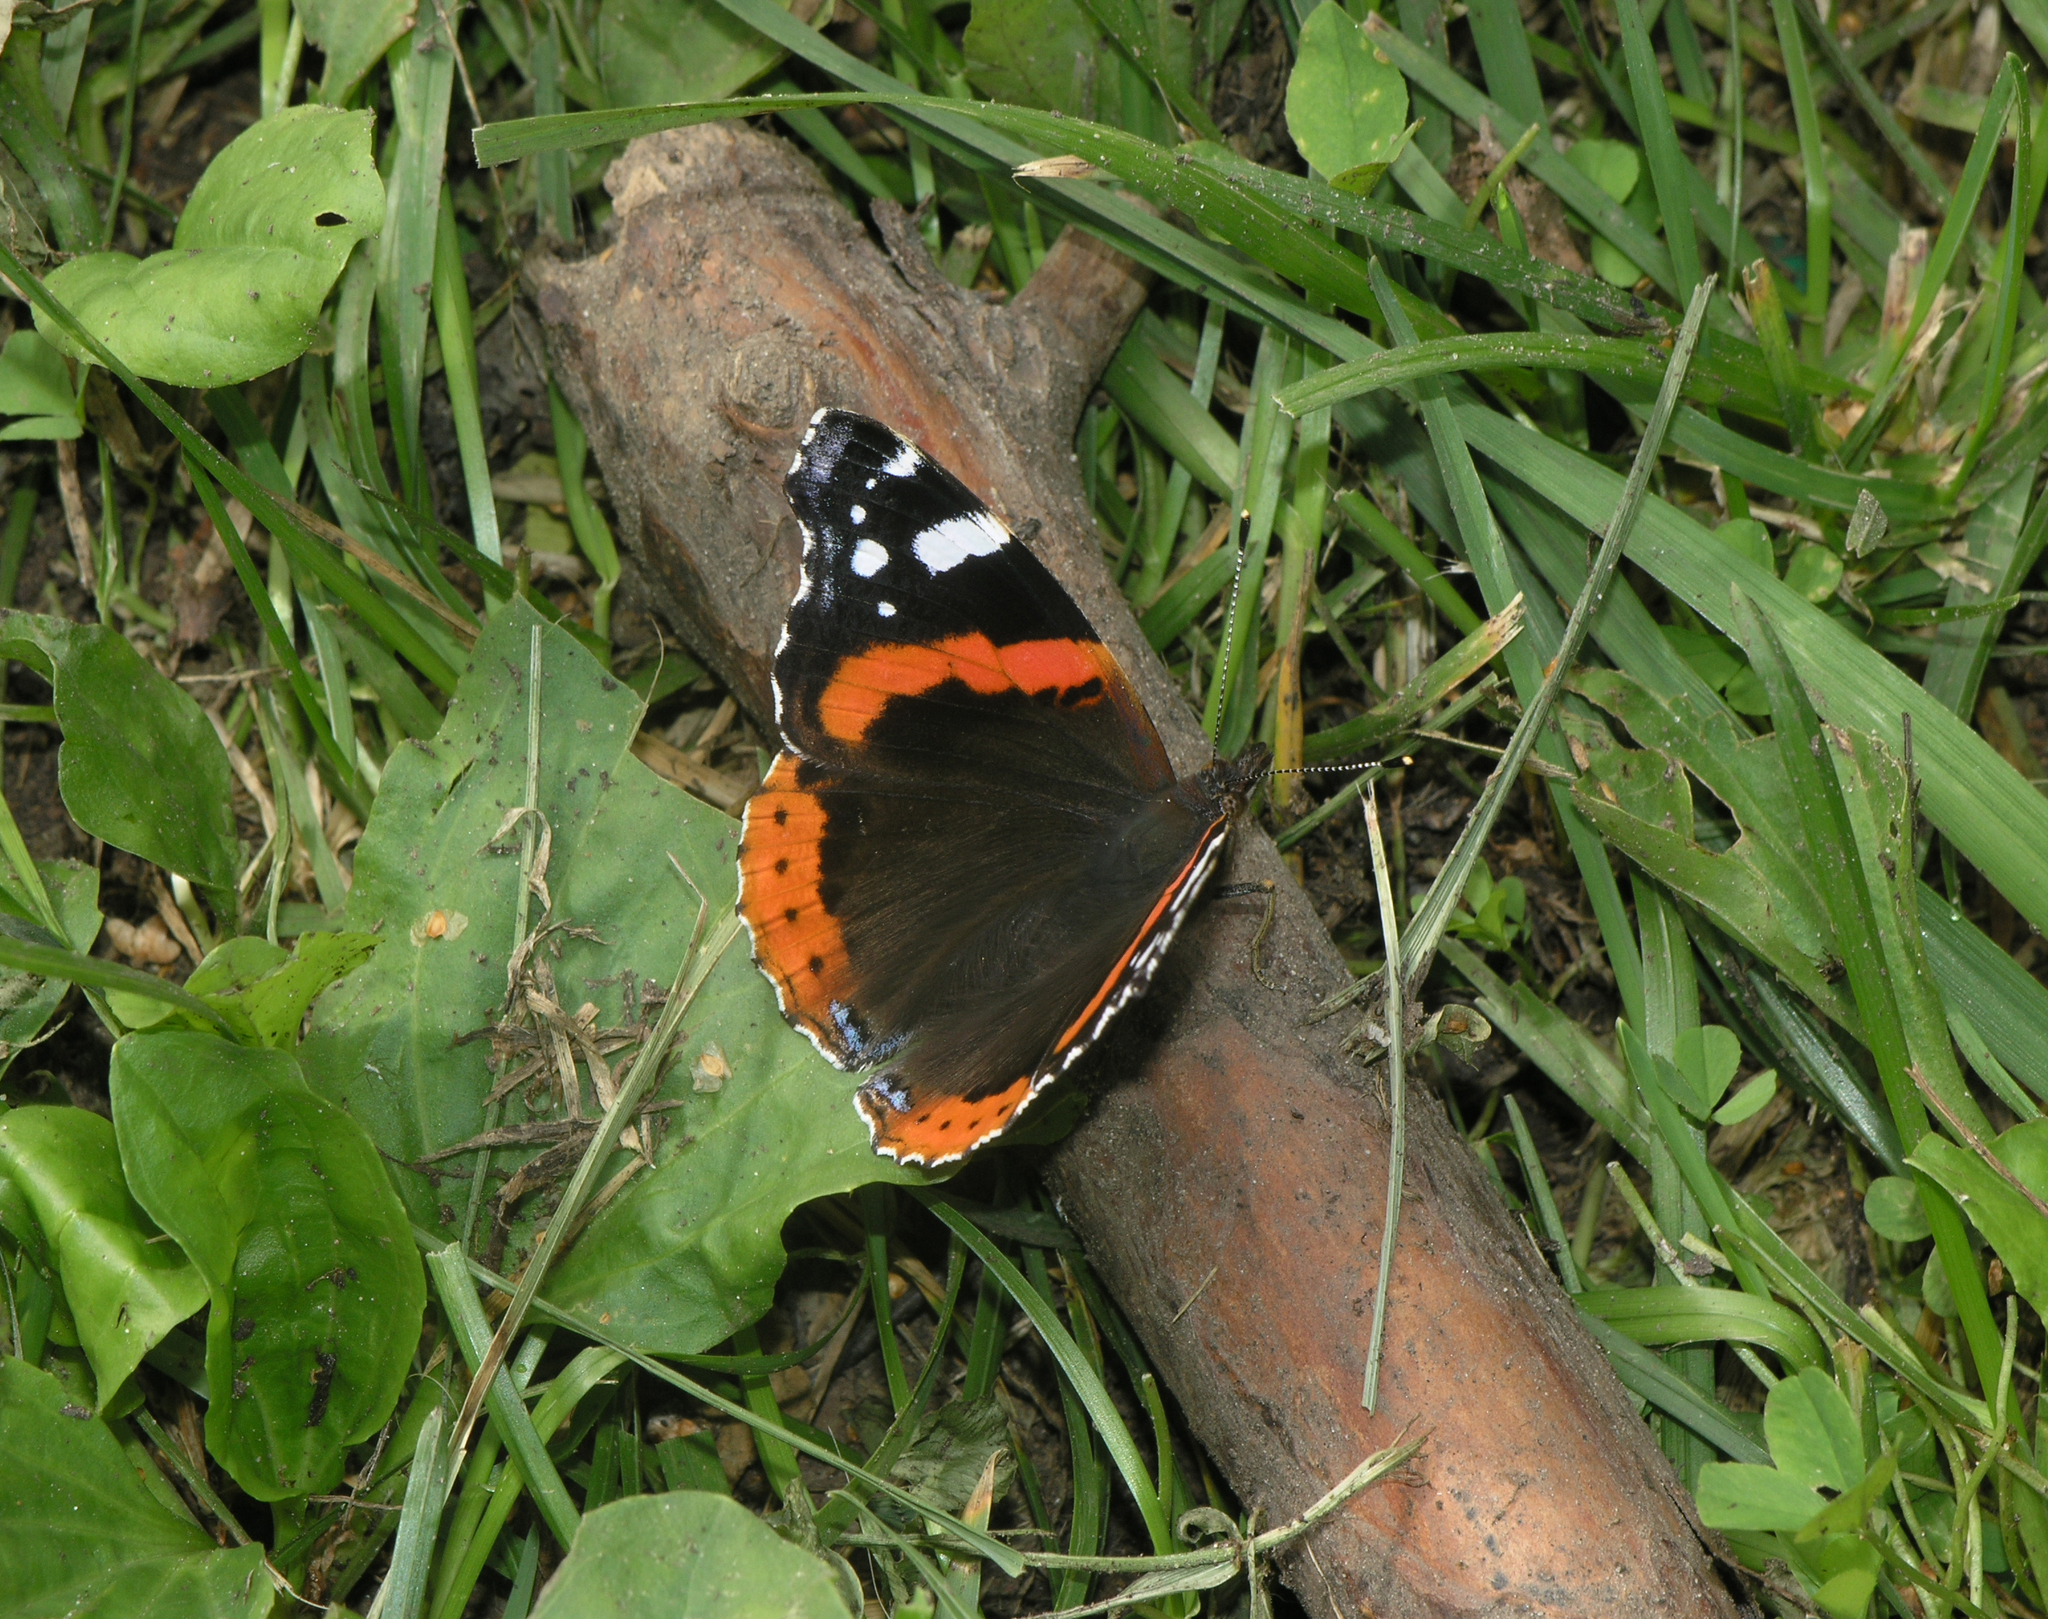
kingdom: Animalia
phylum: Arthropoda
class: Insecta
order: Lepidoptera
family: Nymphalidae
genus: Vanessa
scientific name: Vanessa atalanta
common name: Red admiral
